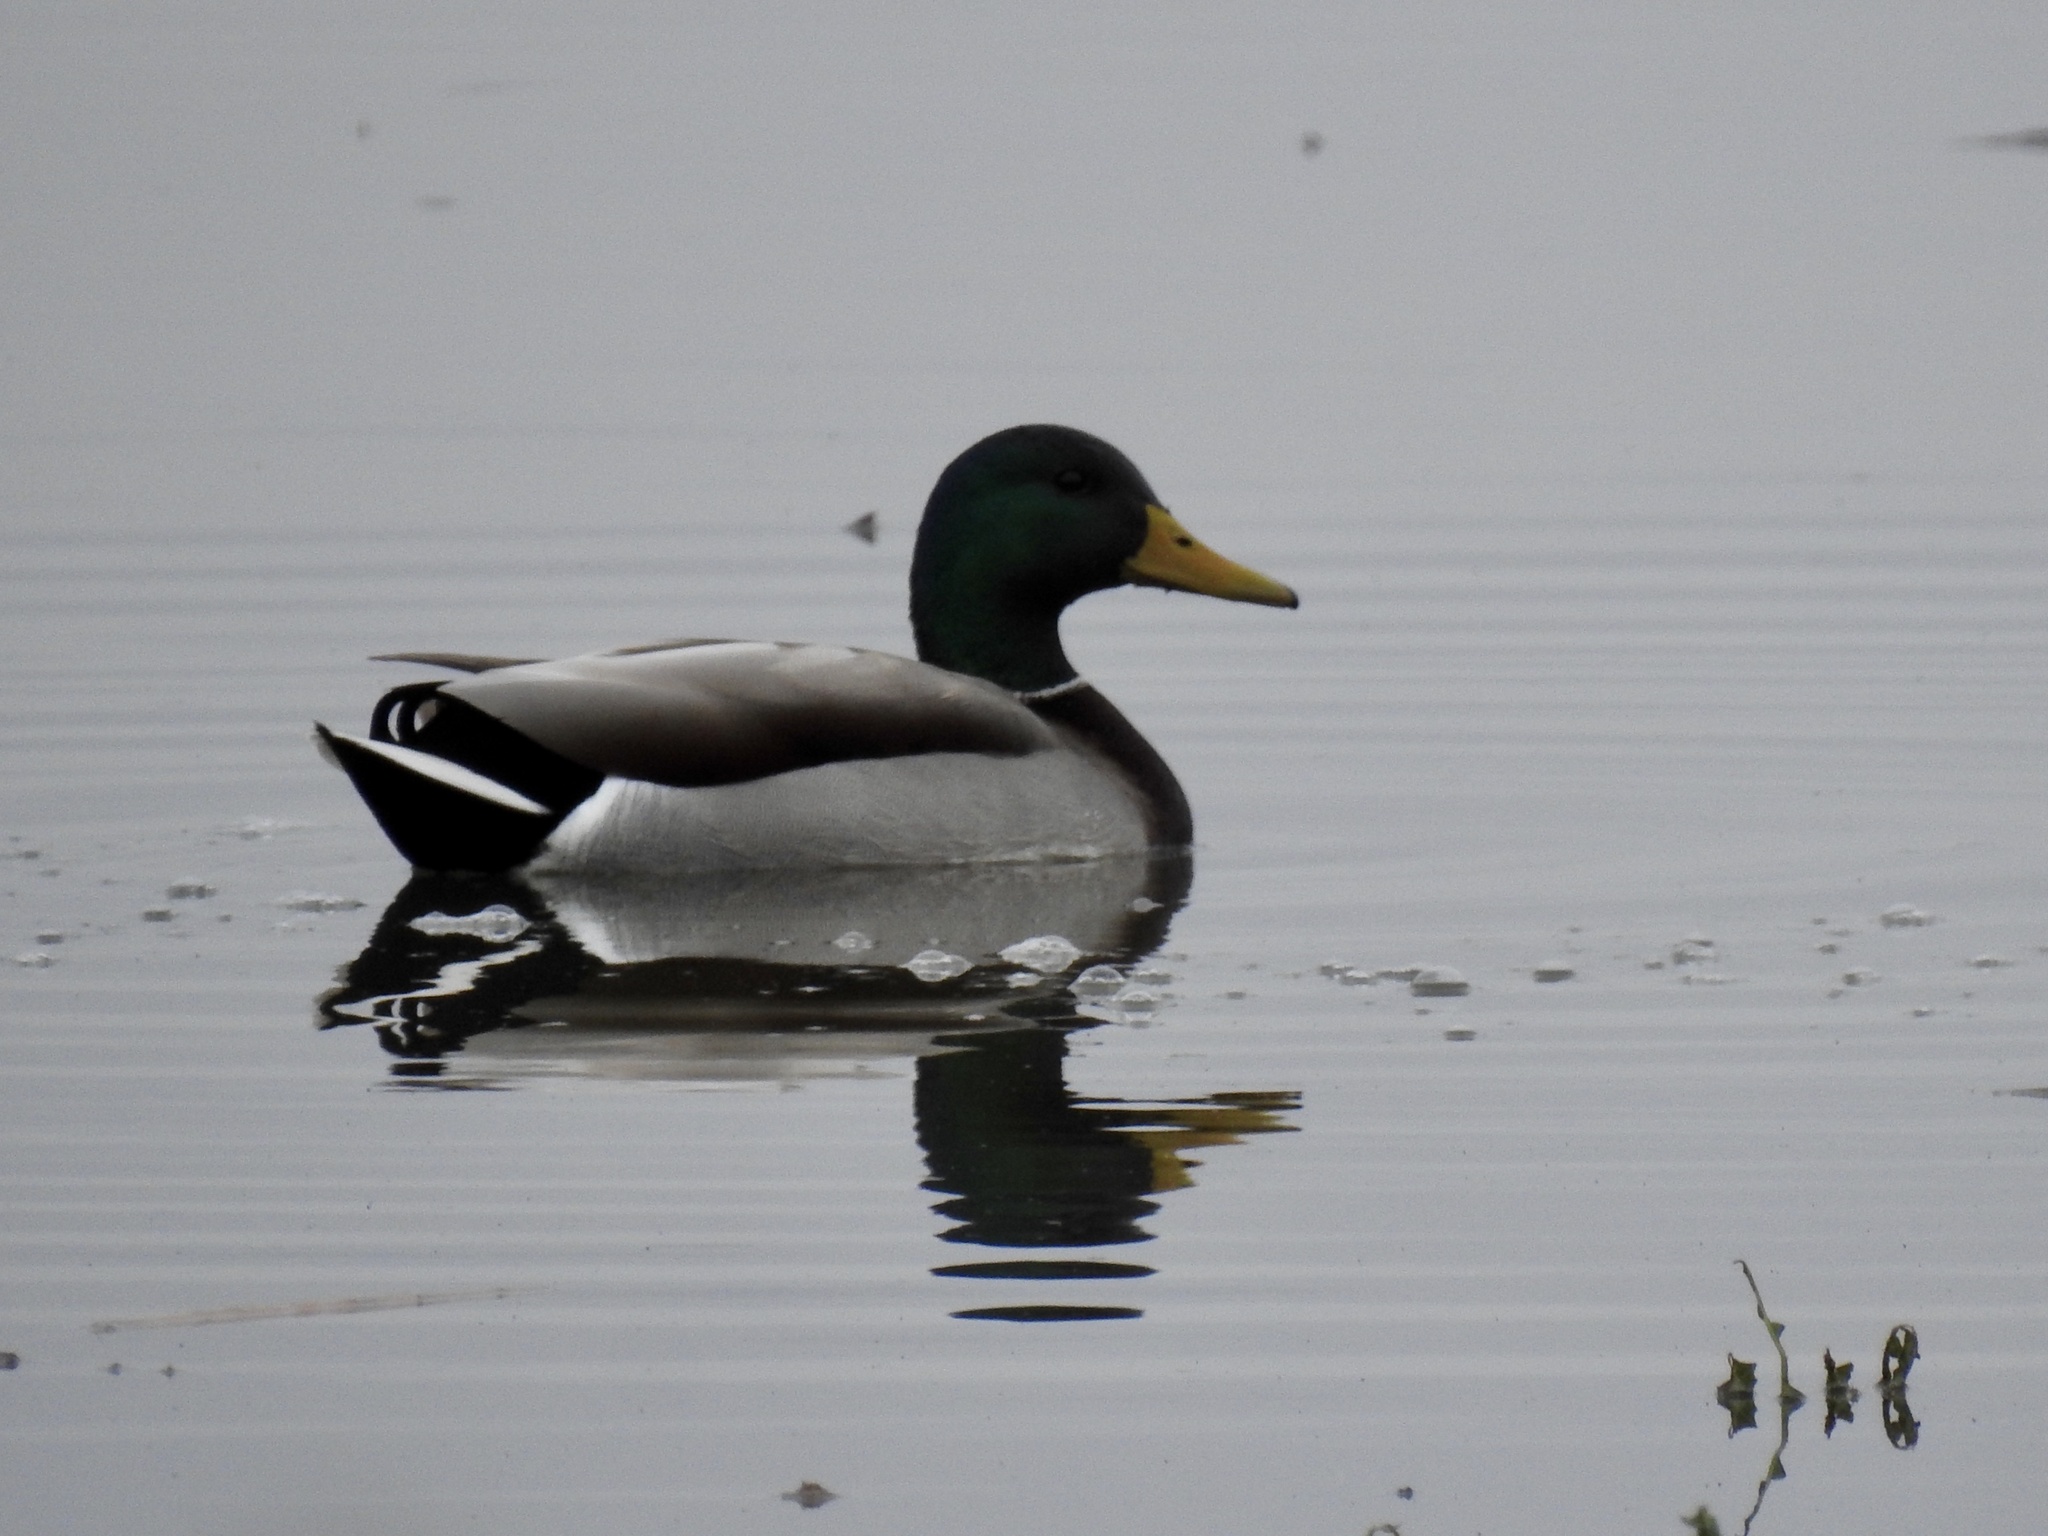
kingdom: Animalia
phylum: Chordata
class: Aves
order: Anseriformes
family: Anatidae
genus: Anas
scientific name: Anas platyrhynchos
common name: Mallard
